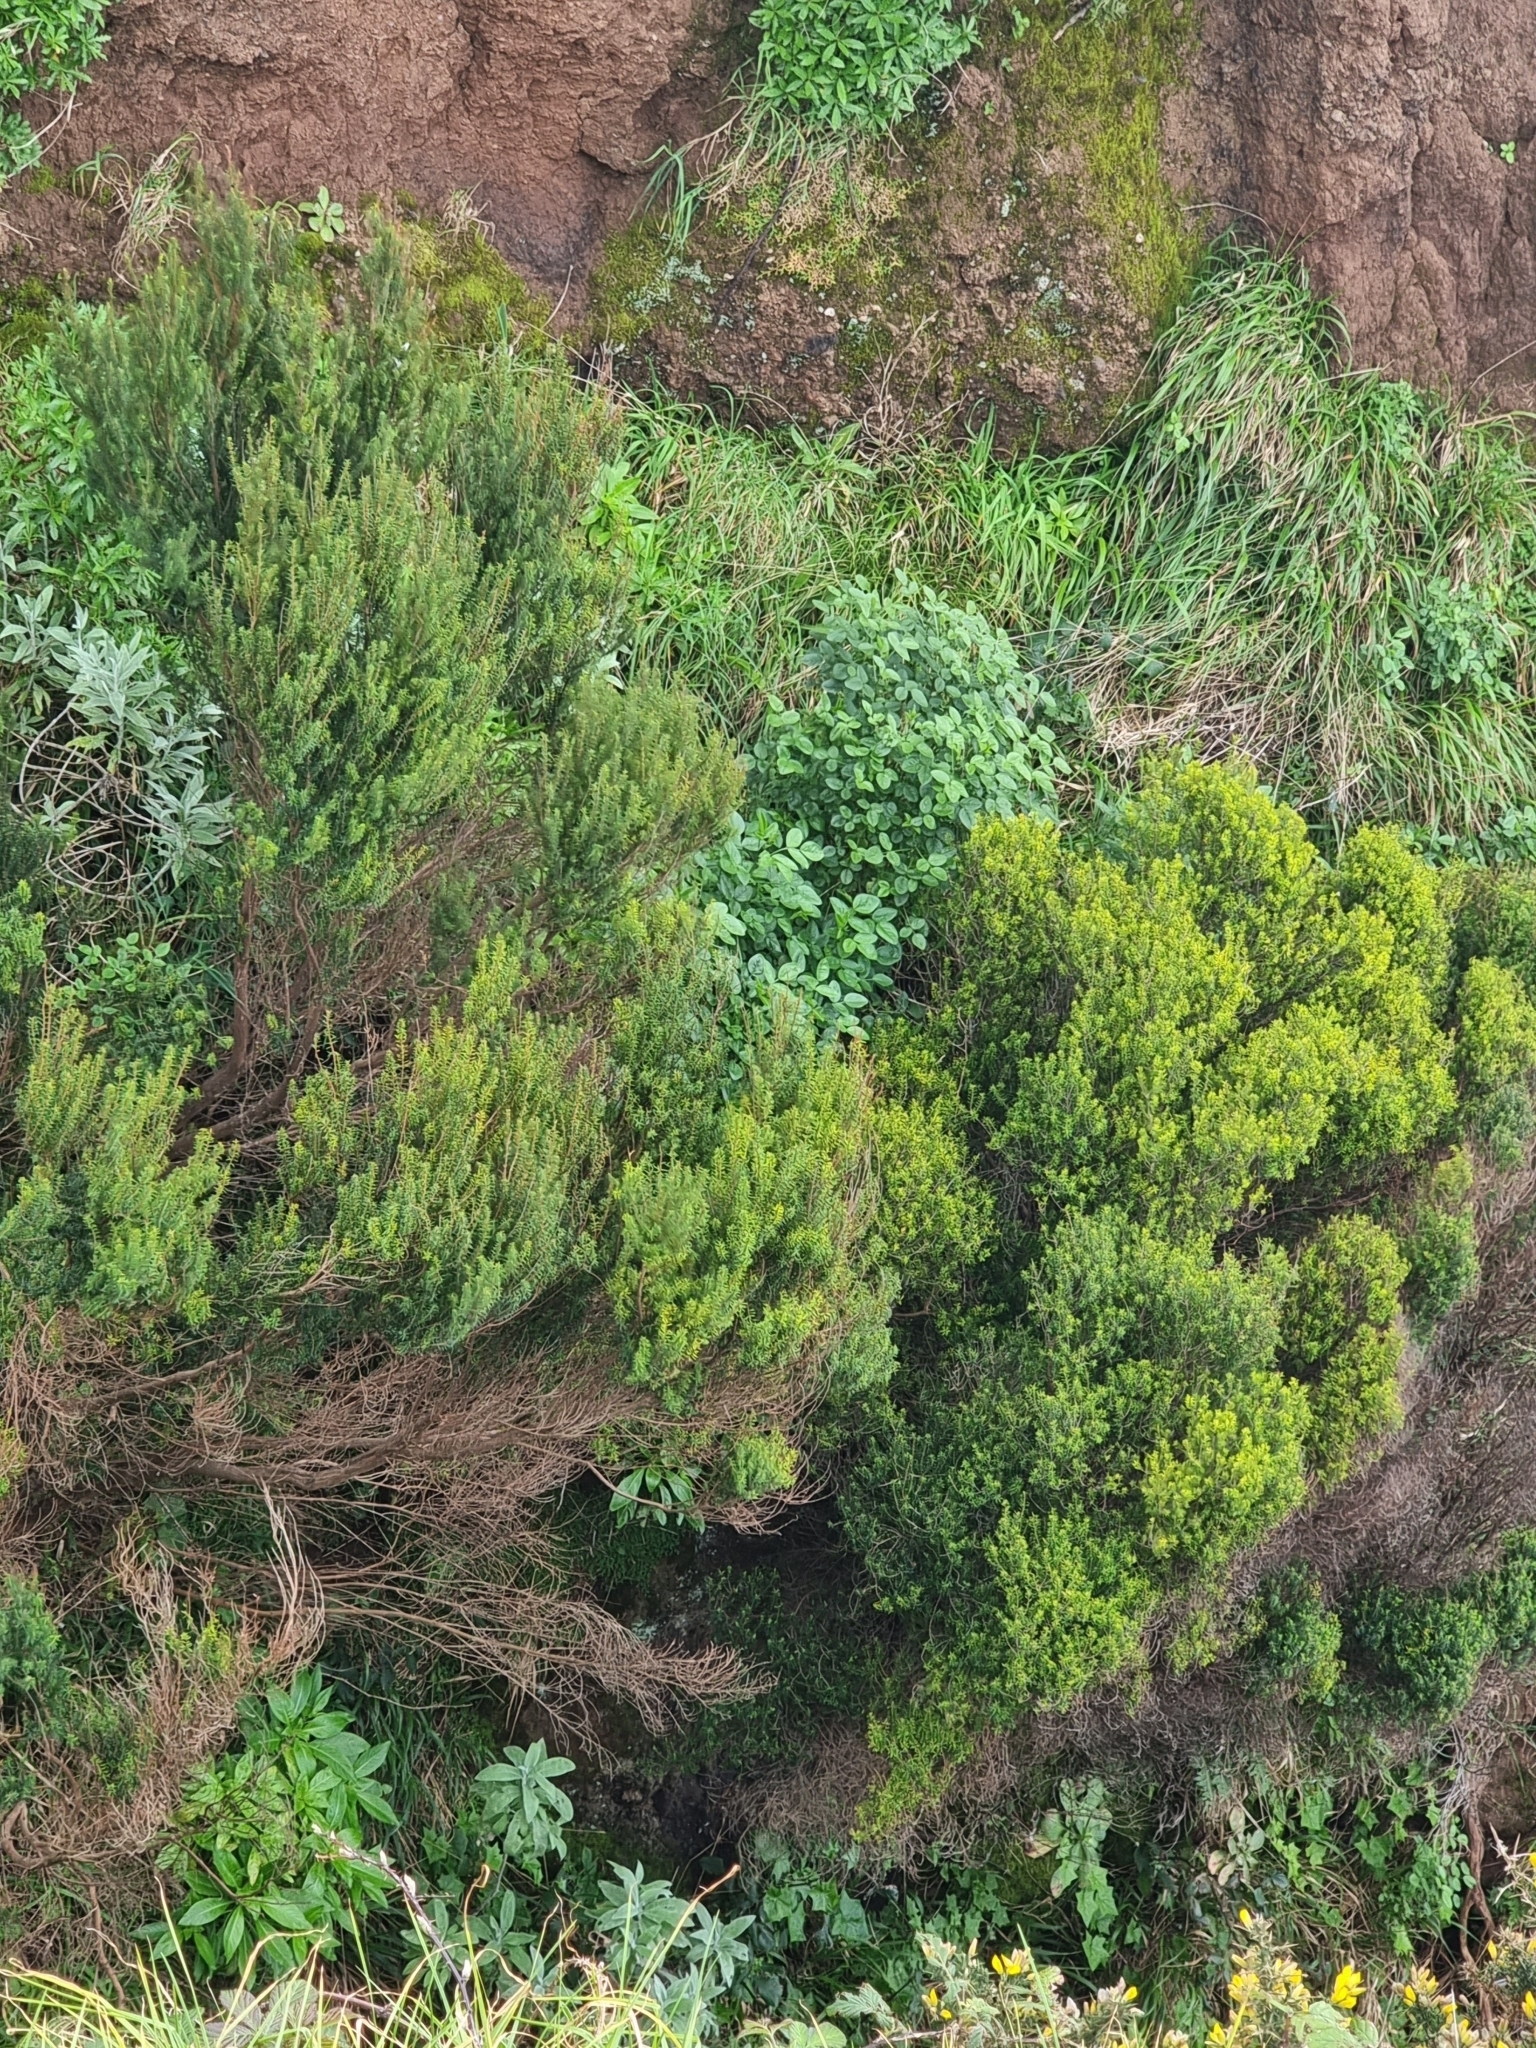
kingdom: Plantae
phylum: Tracheophyta
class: Magnoliopsida
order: Ericales
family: Ericaceae
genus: Erica
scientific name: Erica platycodon
